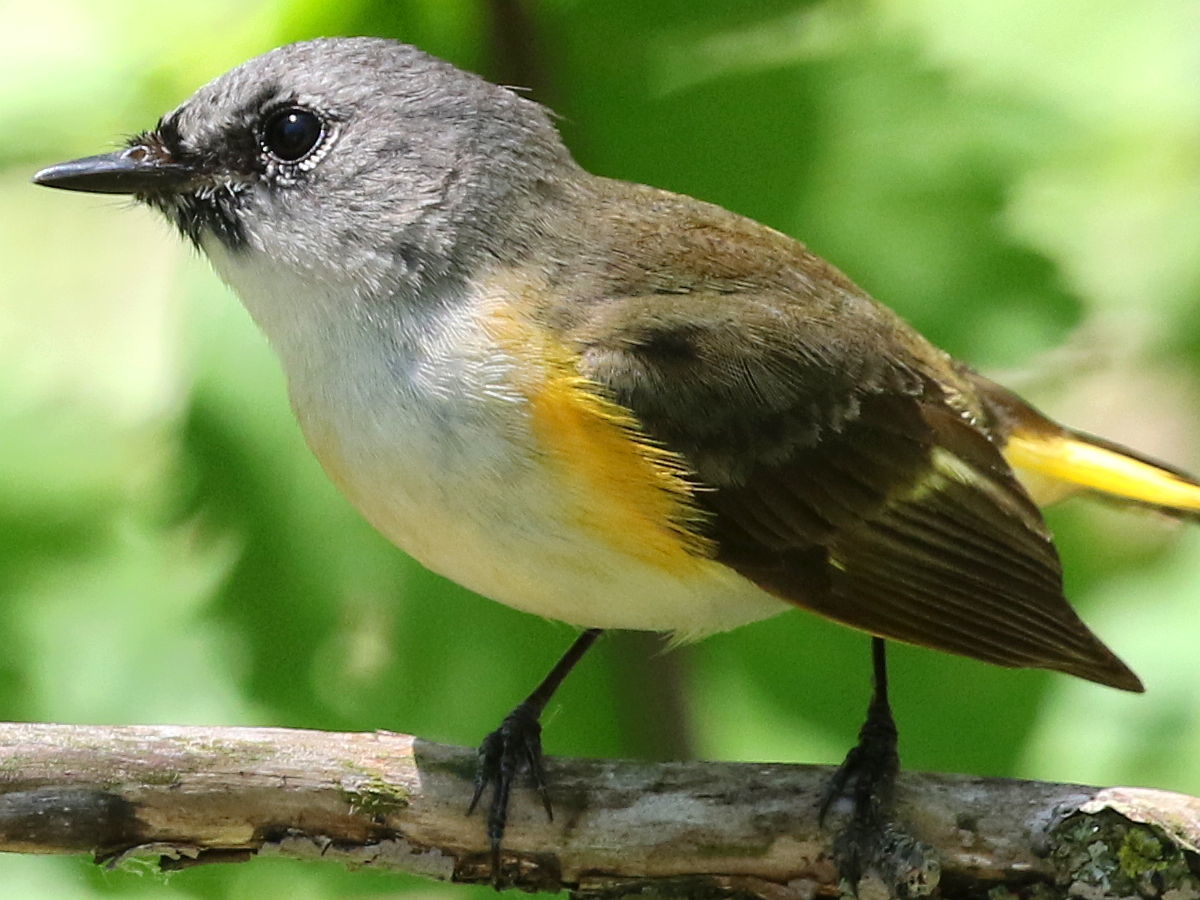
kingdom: Animalia
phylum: Chordata
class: Aves
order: Passeriformes
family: Parulidae
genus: Setophaga
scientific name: Setophaga ruticilla
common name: American redstart
